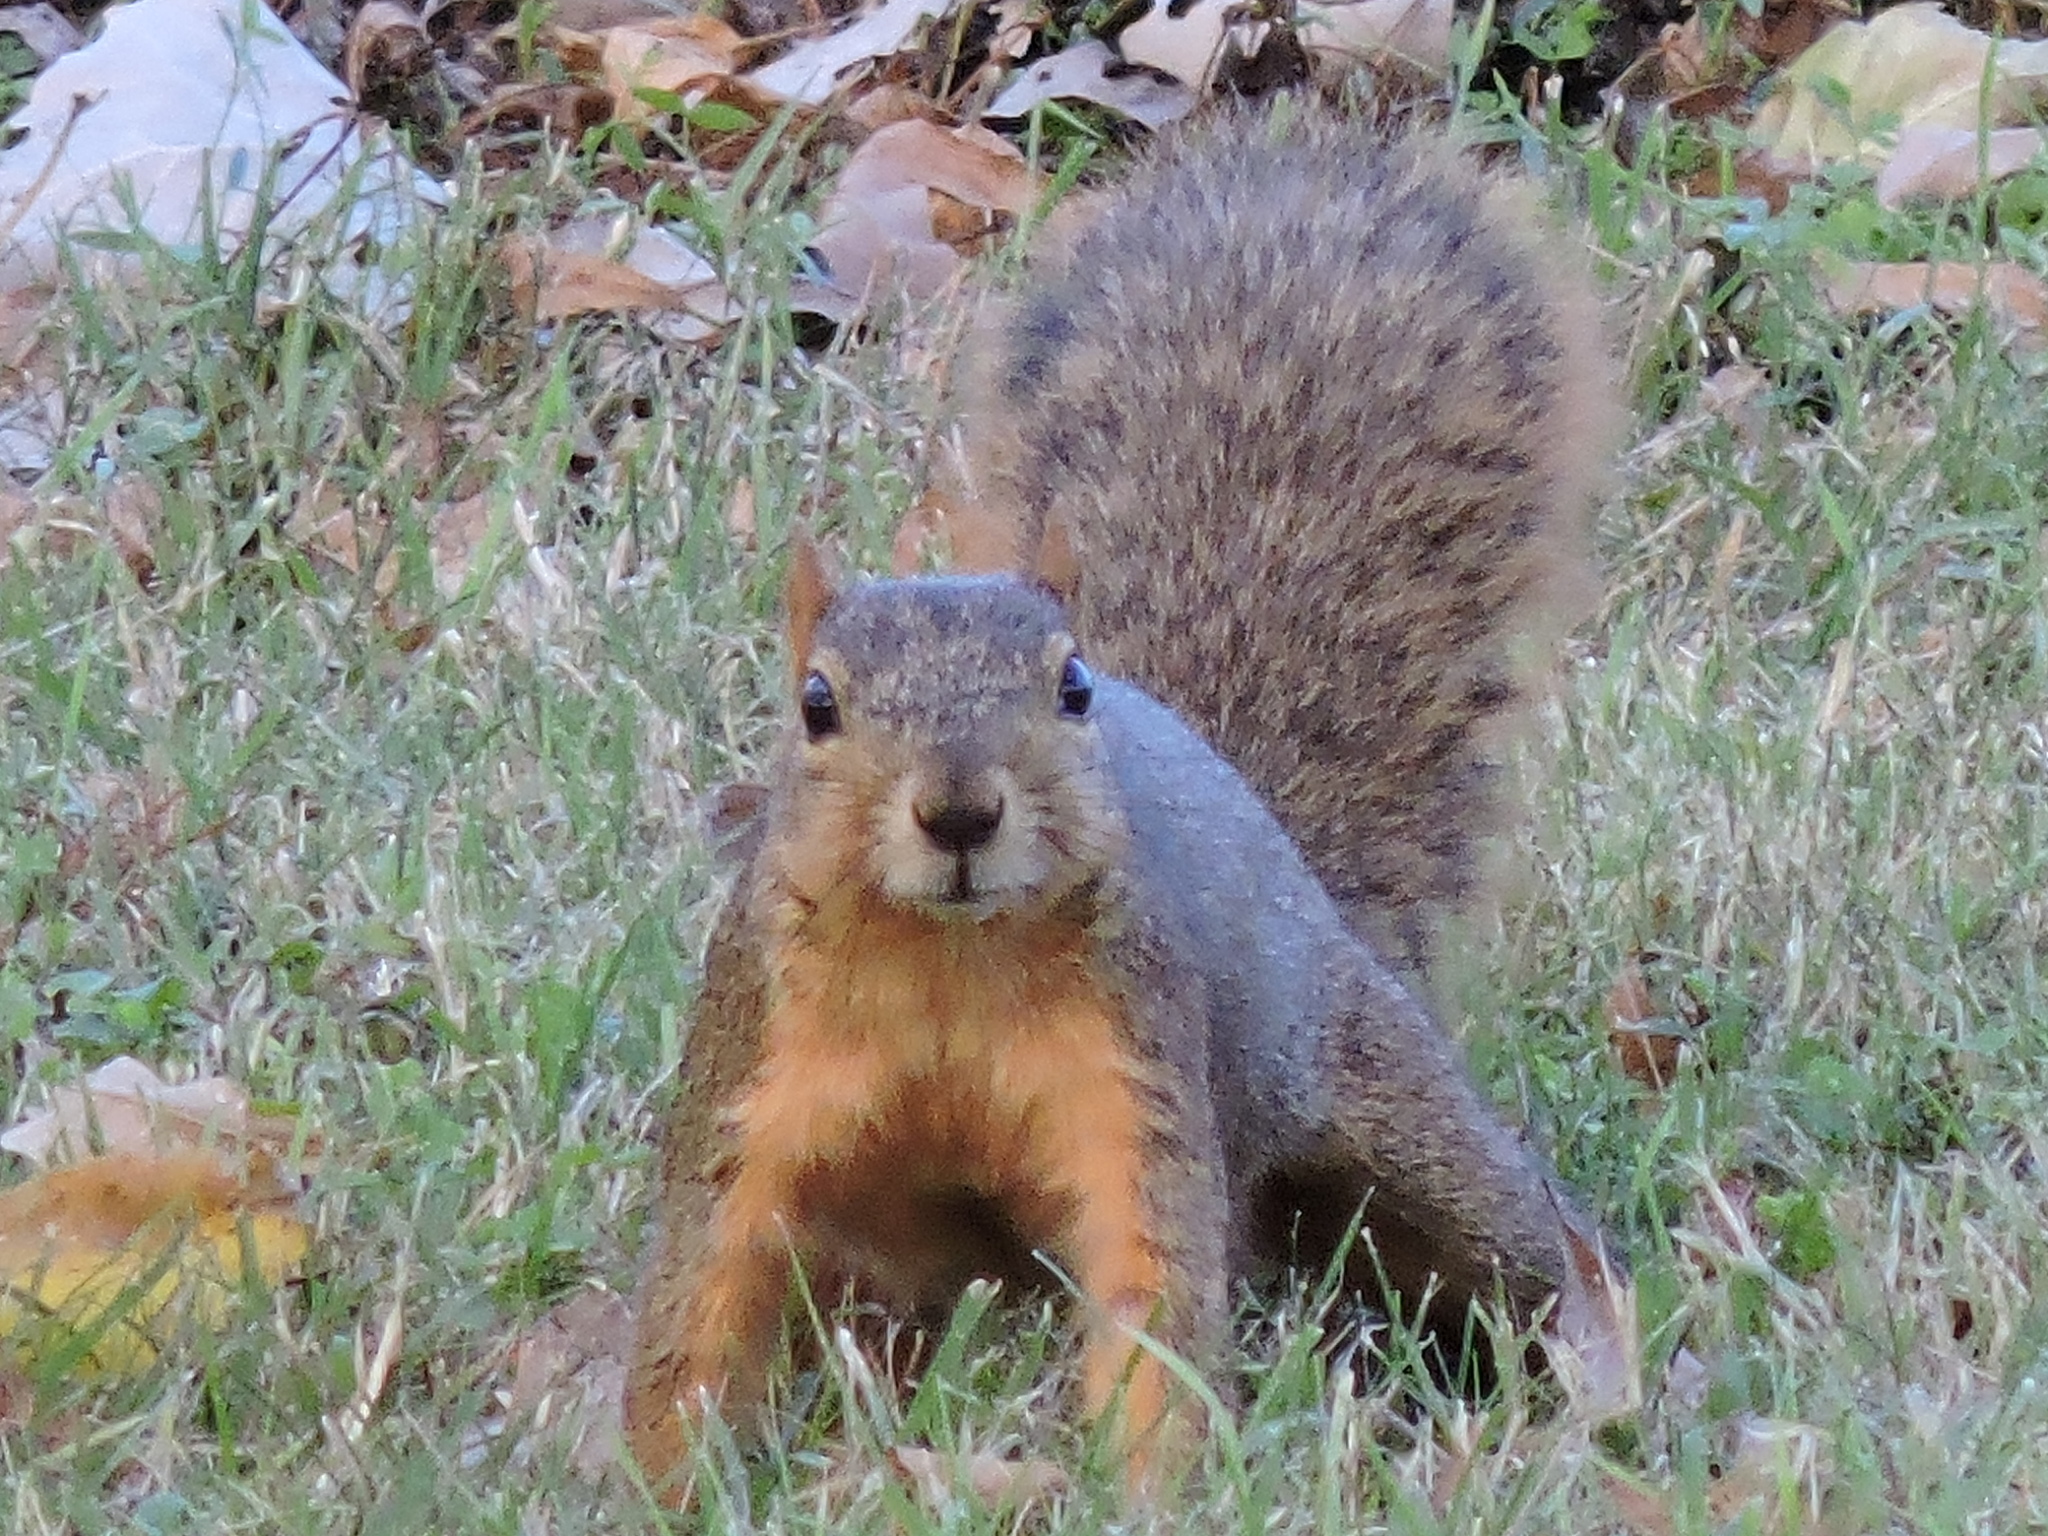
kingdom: Animalia
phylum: Chordata
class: Mammalia
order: Rodentia
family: Sciuridae
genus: Sciurus
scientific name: Sciurus niger
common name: Fox squirrel
